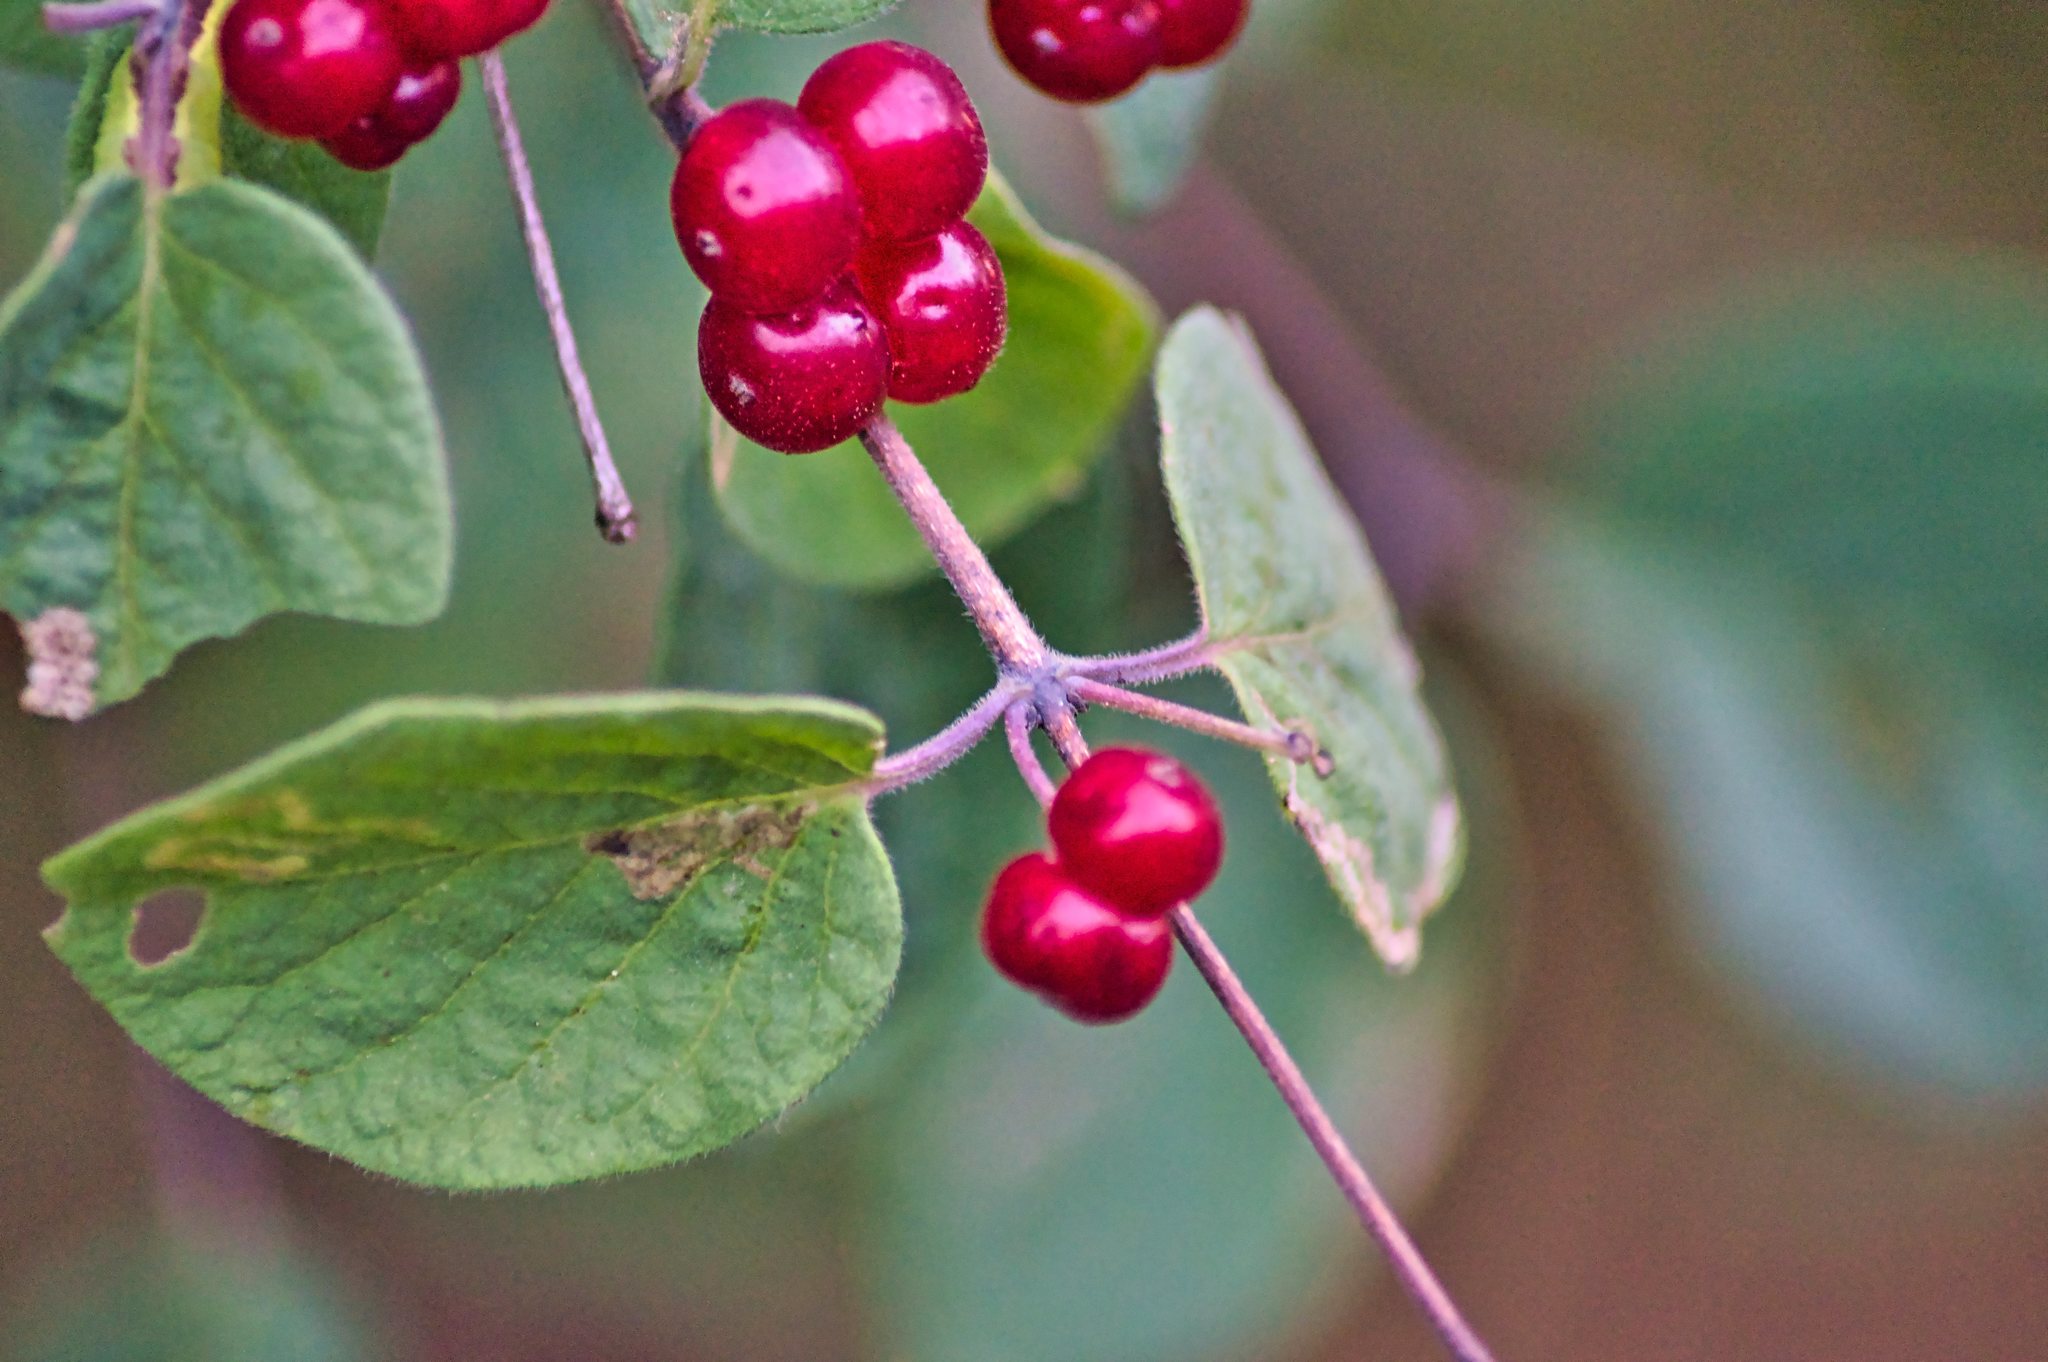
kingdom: Plantae
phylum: Tracheophyta
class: Magnoliopsida
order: Dipsacales
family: Caprifoliaceae
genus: Lonicera
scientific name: Lonicera xylosteum
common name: Fly honeysuckle
